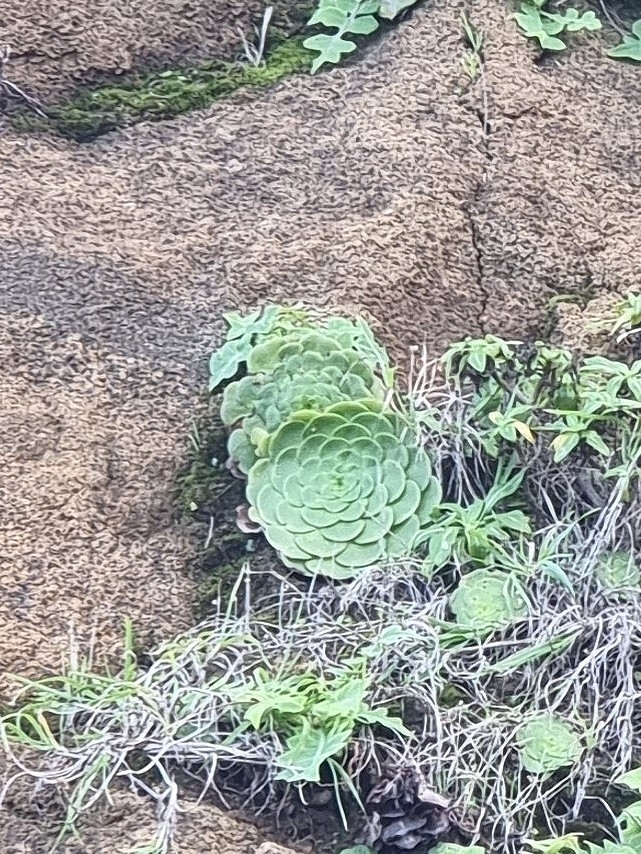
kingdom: Plantae
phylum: Tracheophyta
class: Magnoliopsida
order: Saxifragales
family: Crassulaceae
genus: Aeonium
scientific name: Aeonium glandulosum
